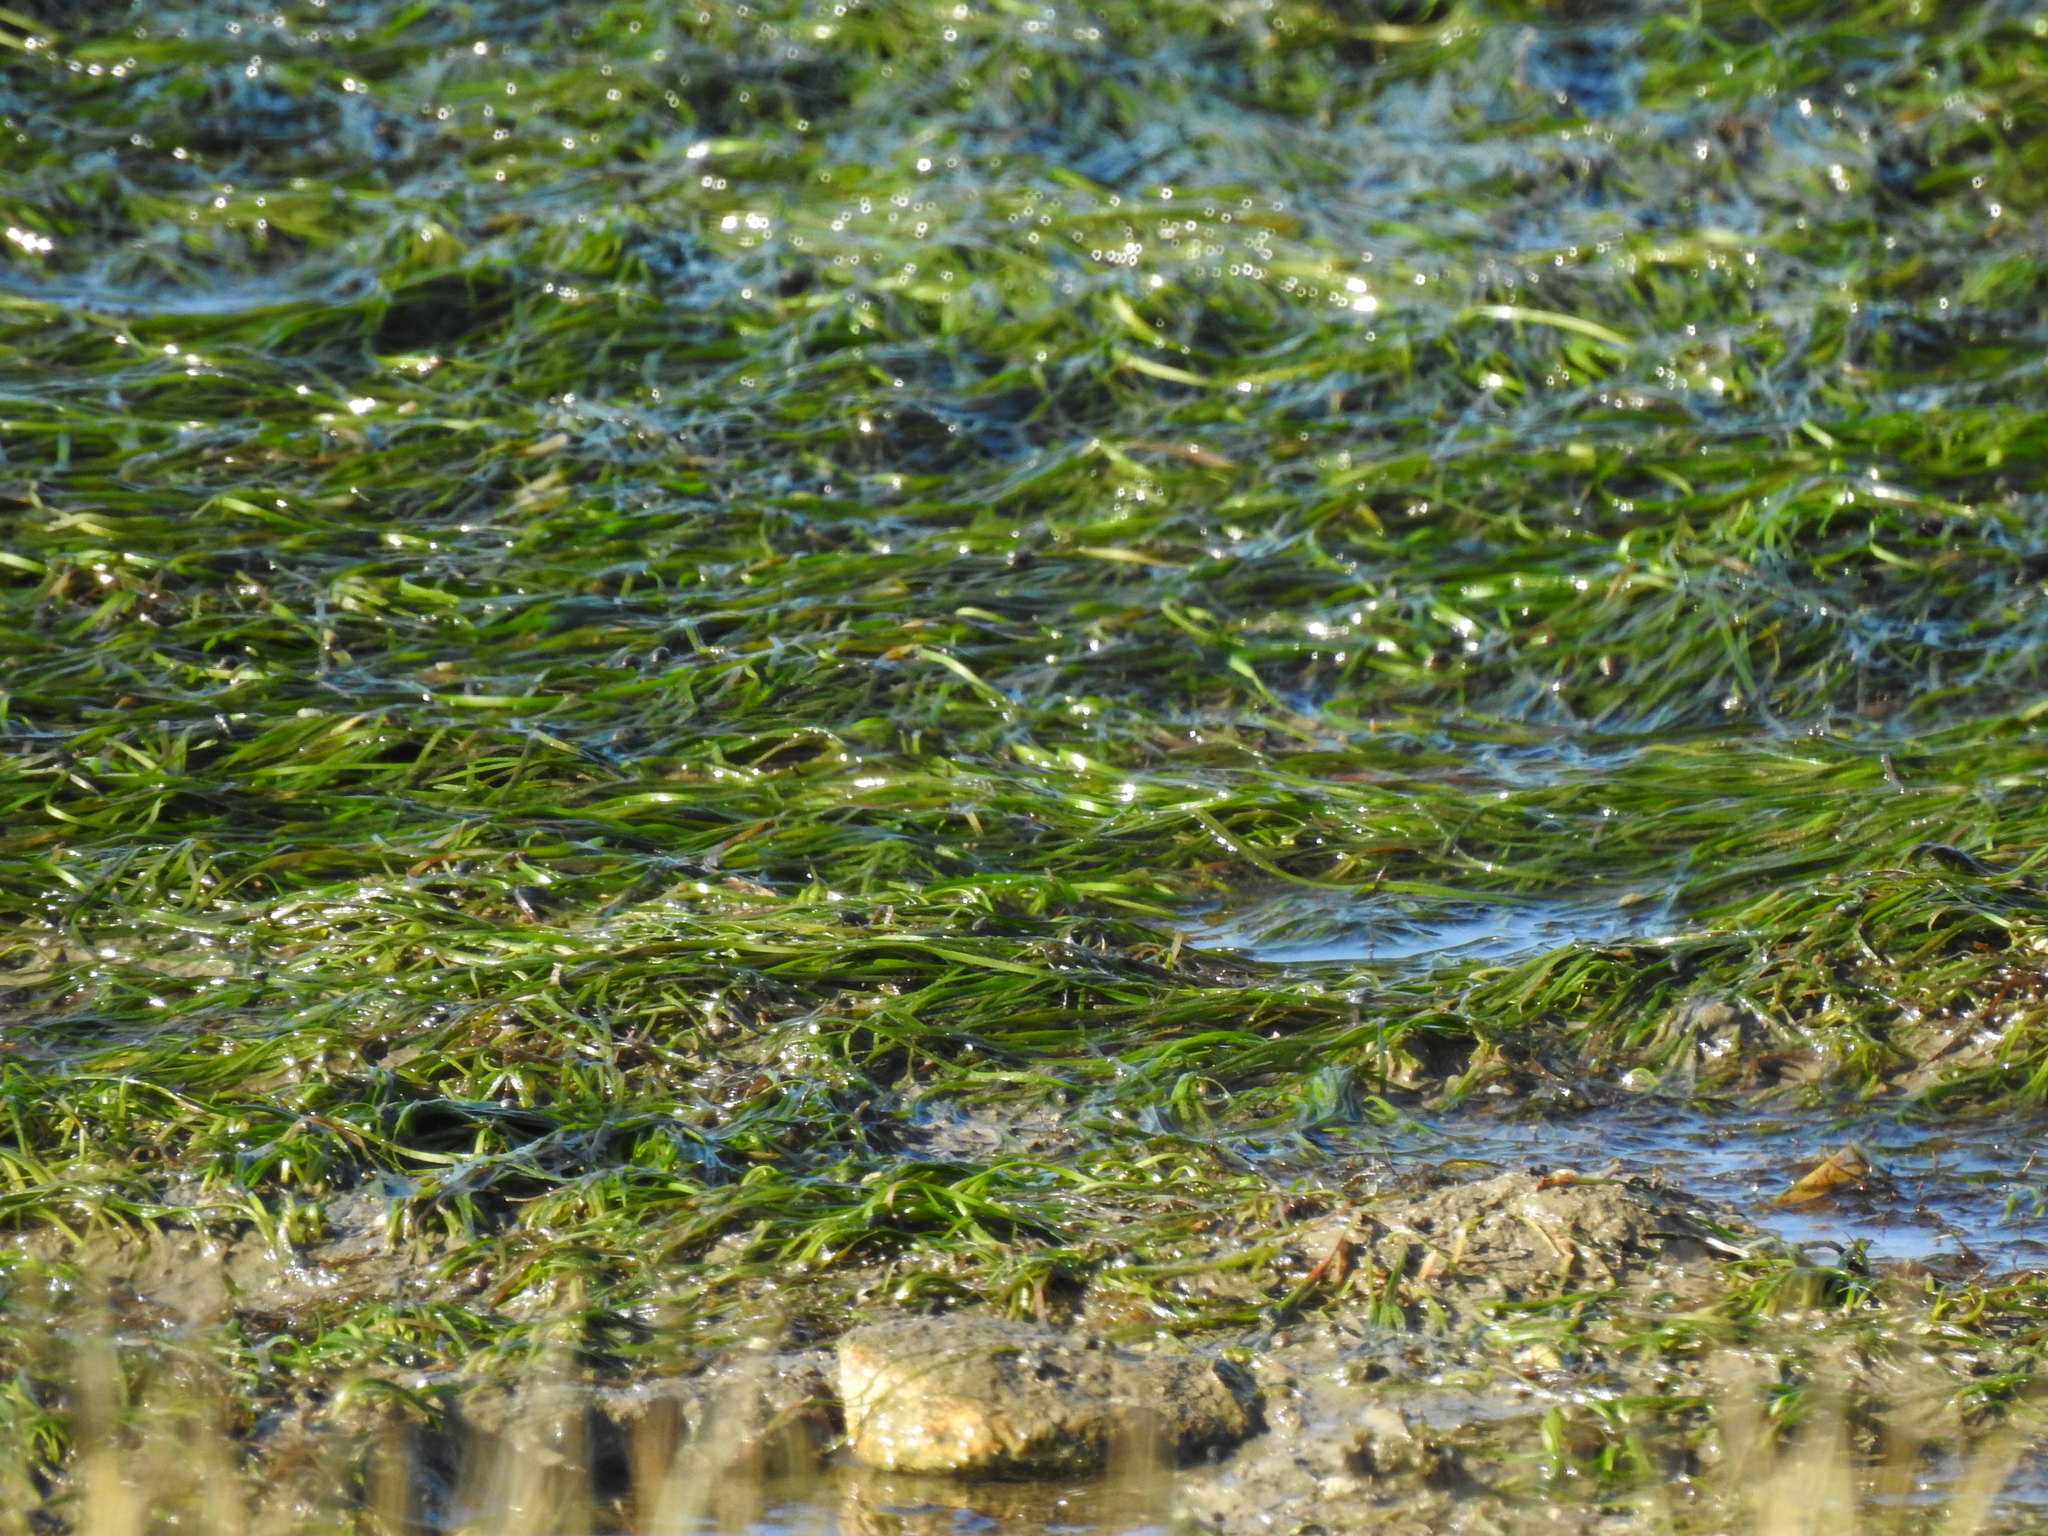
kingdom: Plantae
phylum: Tracheophyta
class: Liliopsida
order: Alismatales
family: Zosteraceae
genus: Zostera
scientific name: Zostera noltii
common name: Dwarf eelgrass
